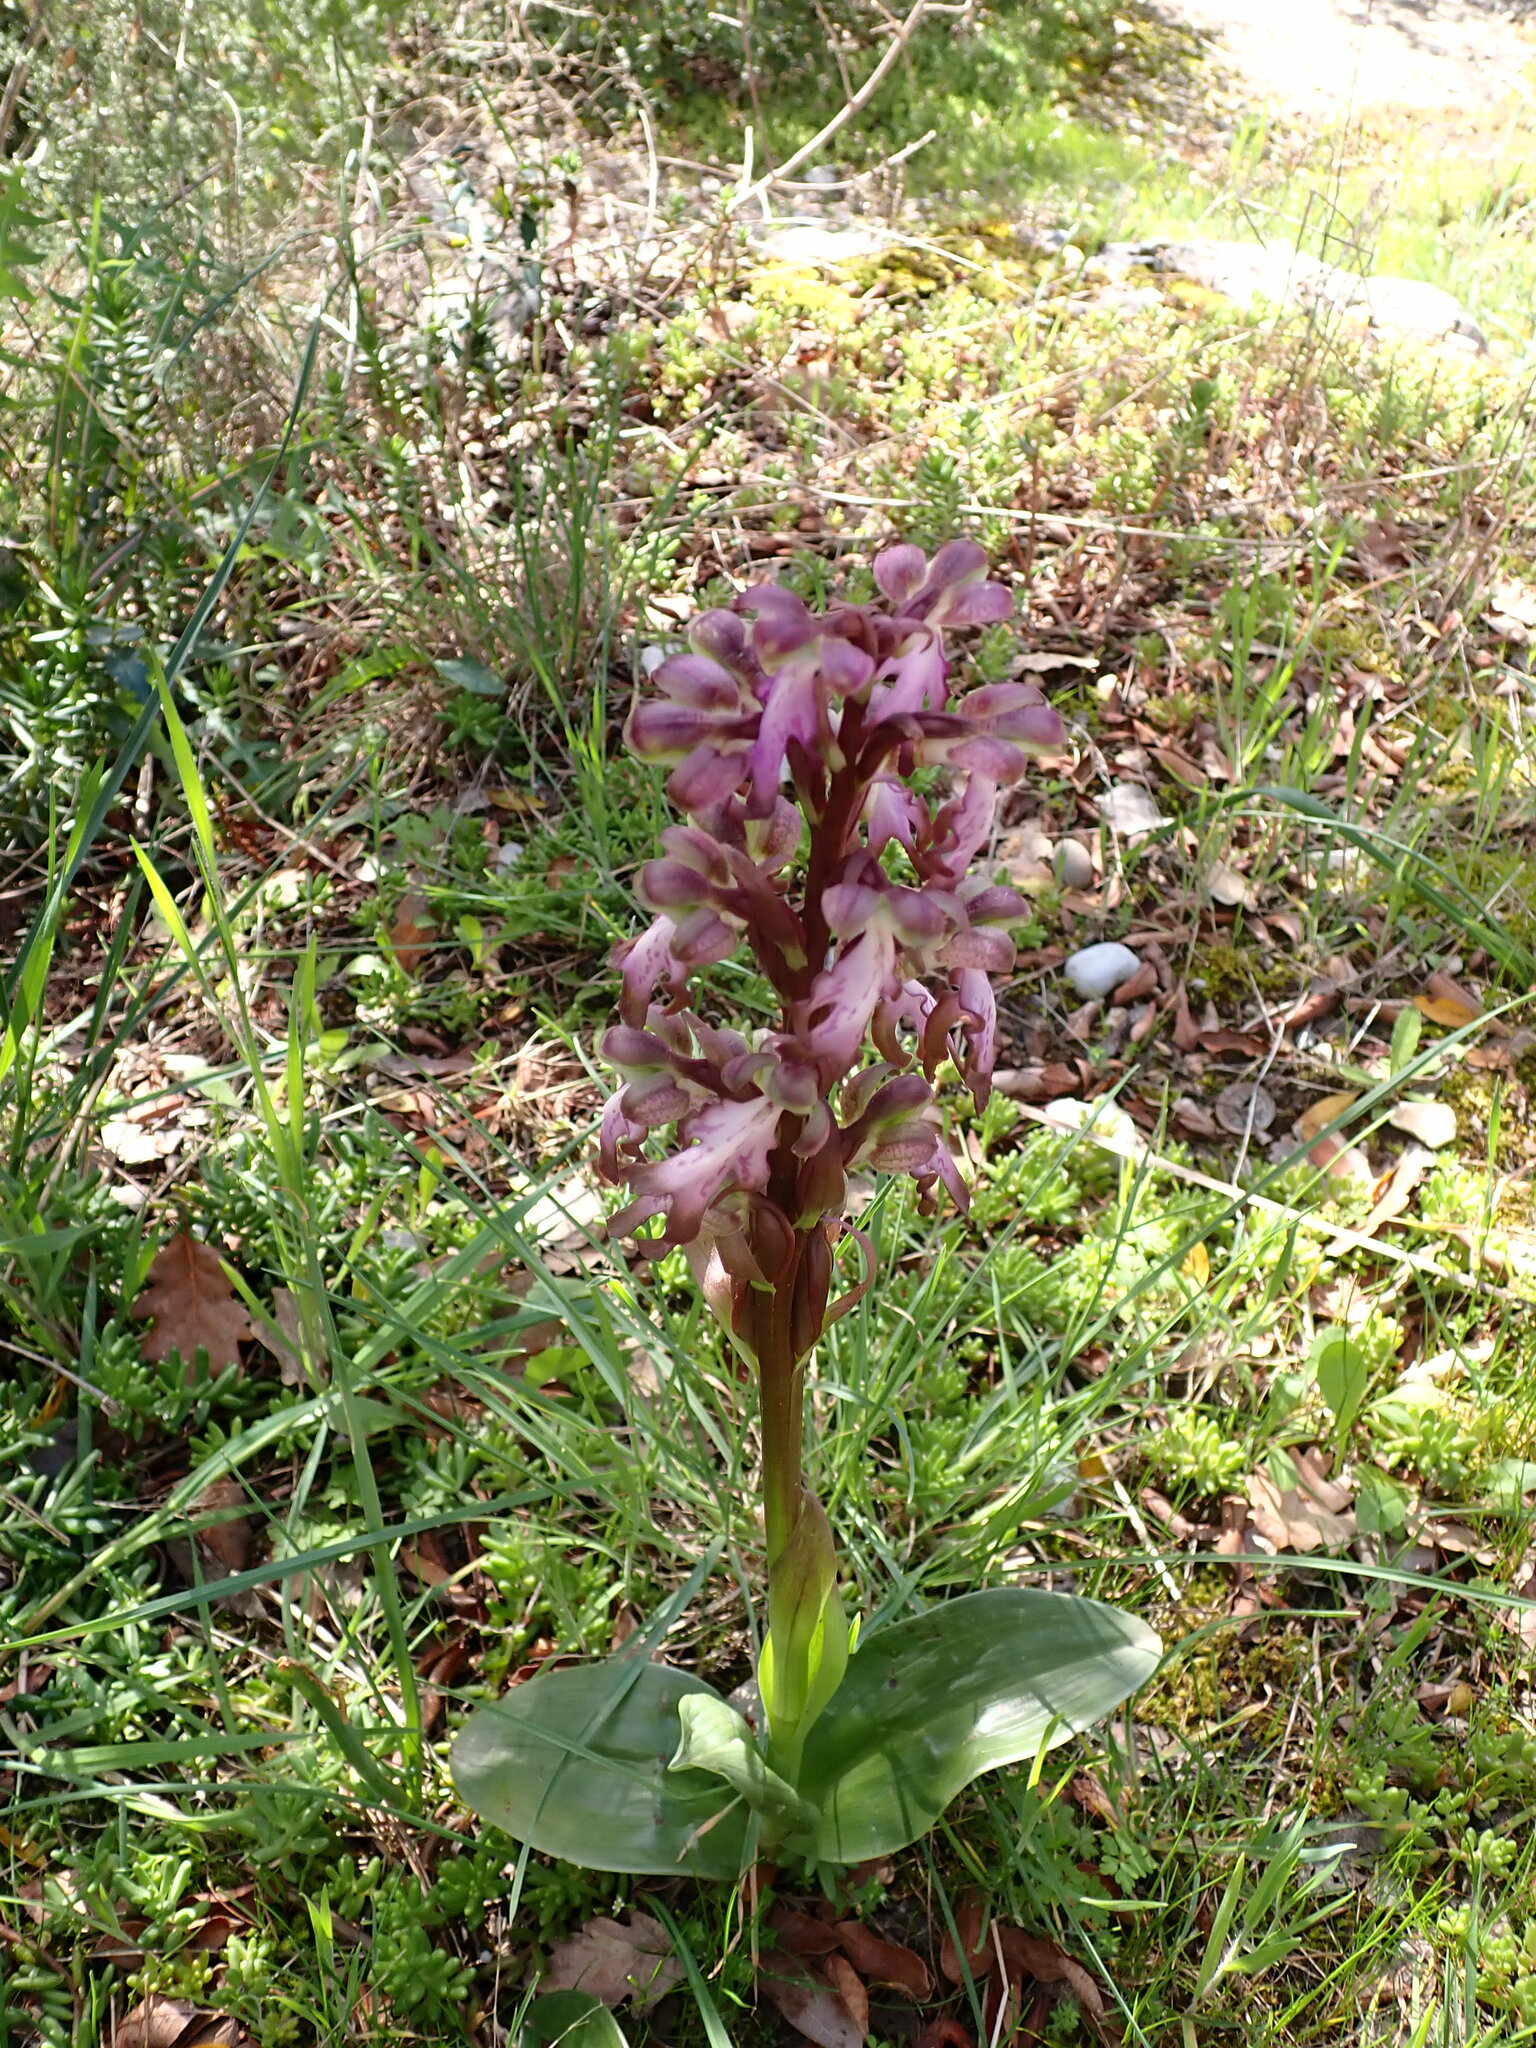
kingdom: Plantae
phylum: Tracheophyta
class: Liliopsida
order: Asparagales
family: Orchidaceae
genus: Himantoglossum
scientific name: Himantoglossum robertianum
